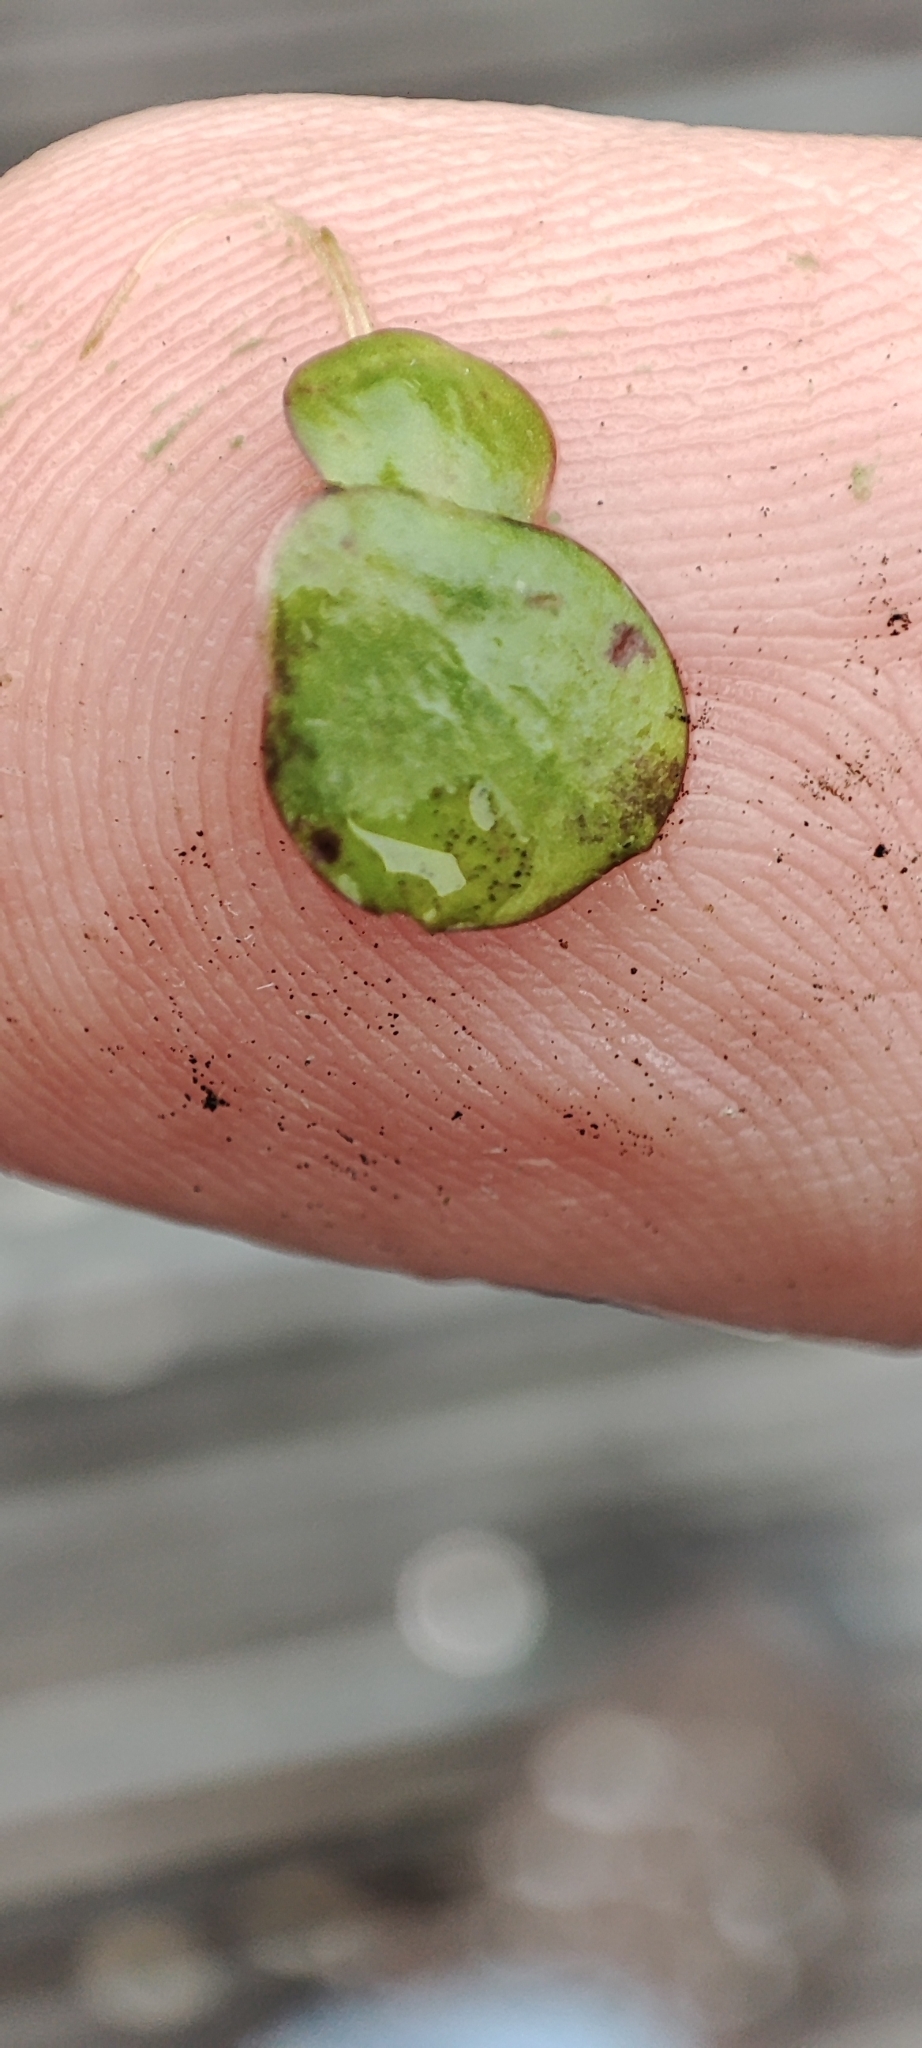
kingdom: Plantae
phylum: Tracheophyta
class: Liliopsida
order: Alismatales
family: Araceae
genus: Spirodela
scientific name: Spirodela polyrhiza
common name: Great duckweed
